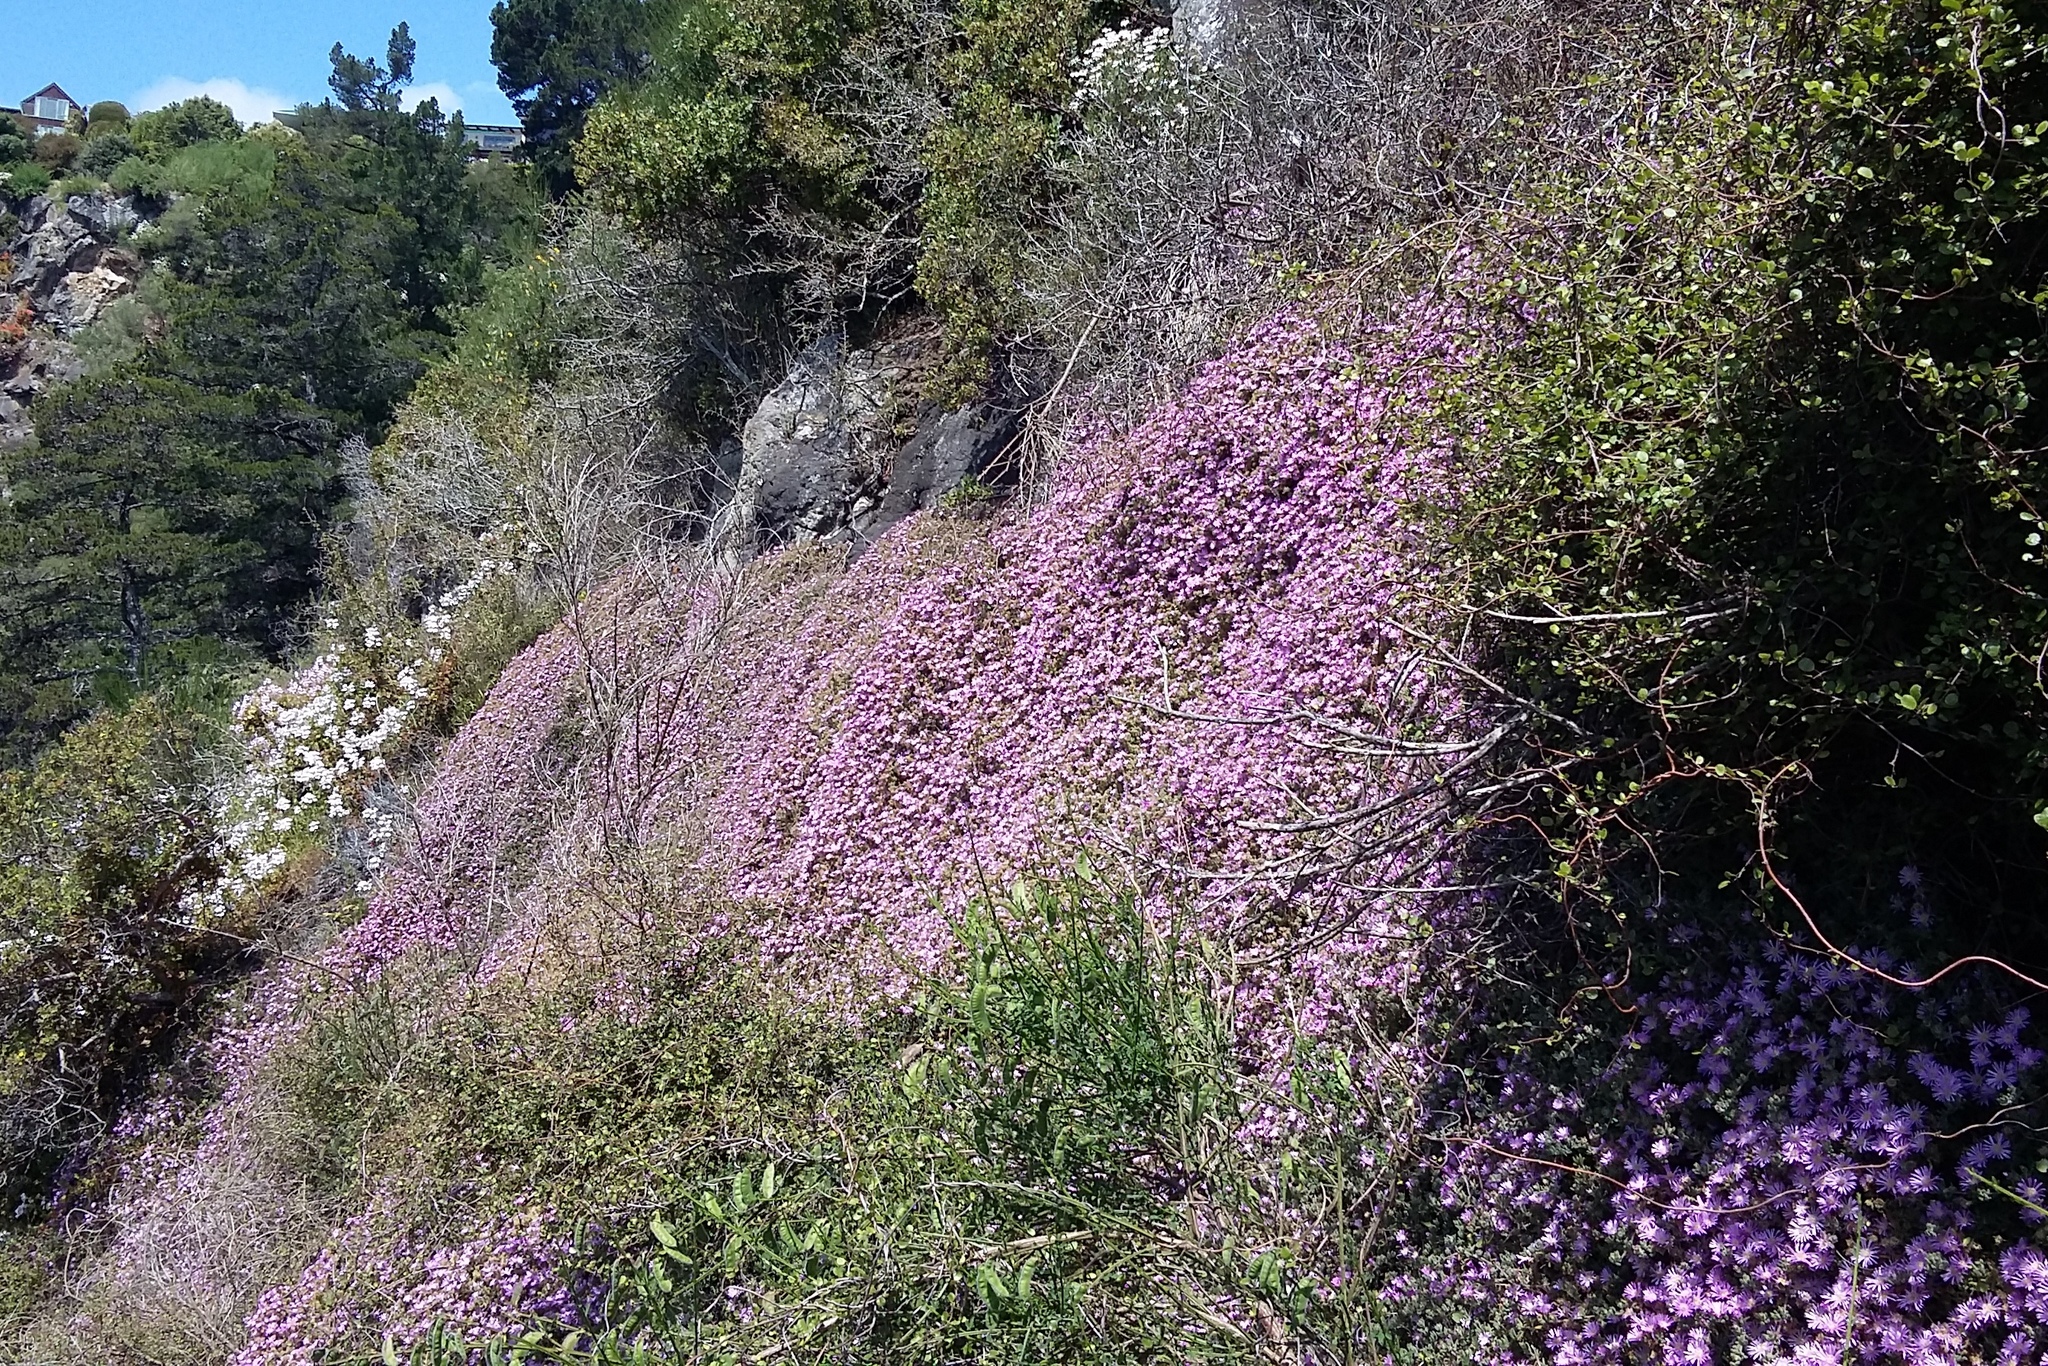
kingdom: Plantae
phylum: Tracheophyta
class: Magnoliopsida
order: Caryophyllales
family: Aizoaceae
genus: Disphyma
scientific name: Disphyma australe
